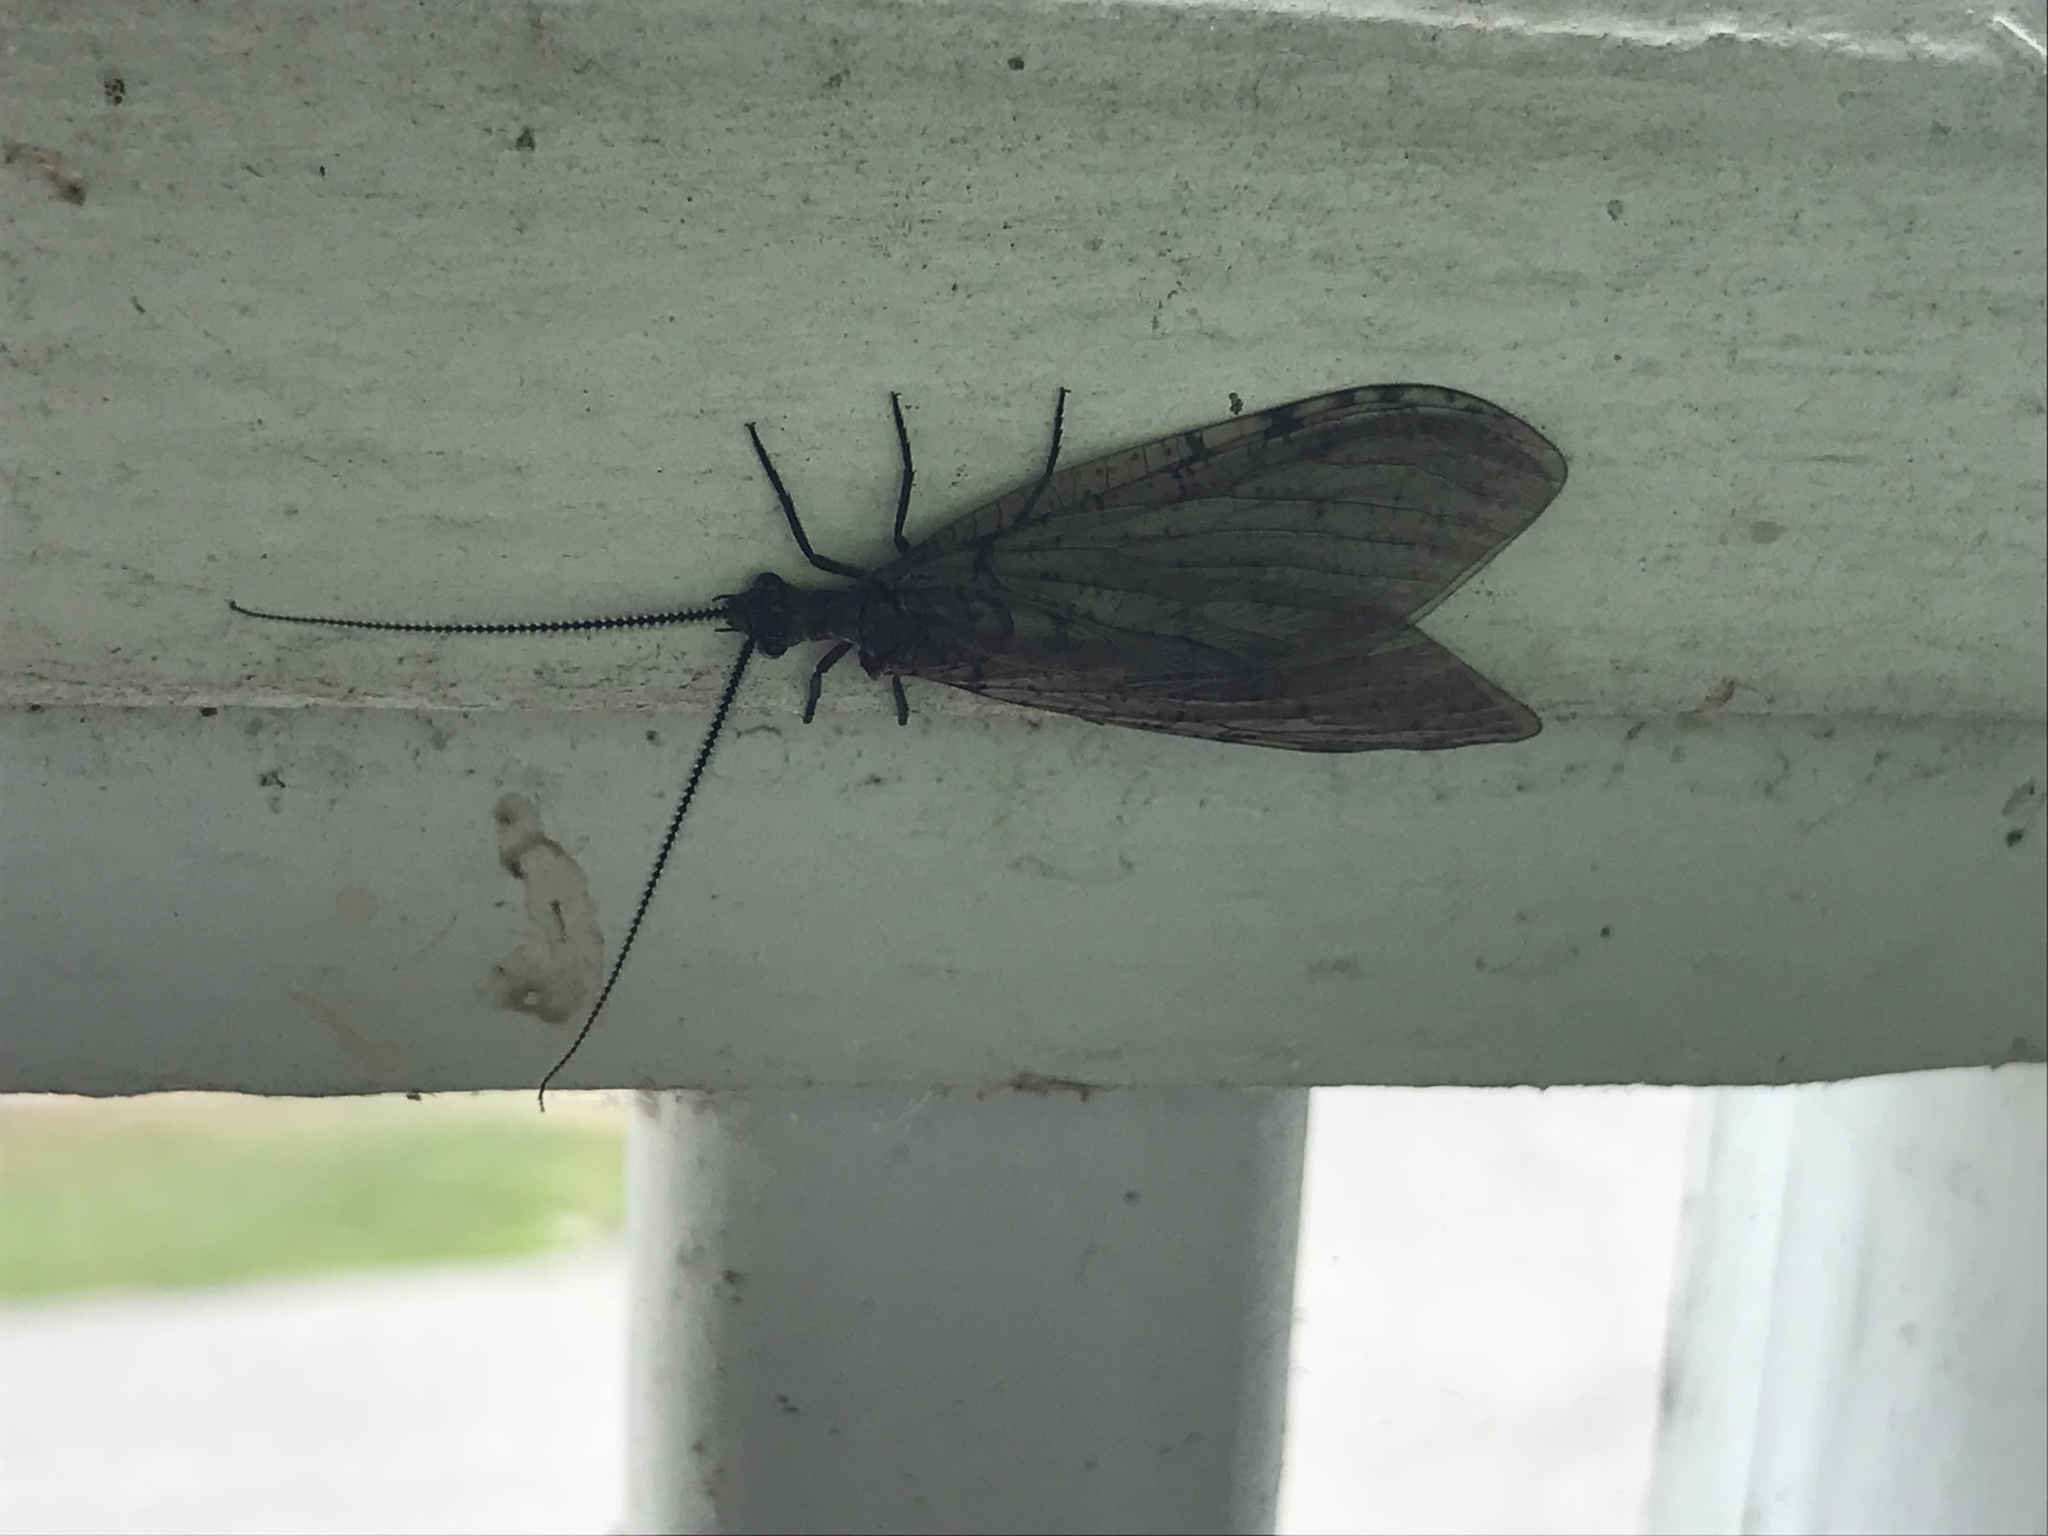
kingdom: Animalia
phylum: Arthropoda
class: Insecta
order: Megaloptera
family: Corydalidae
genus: Neohermes
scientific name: Neohermes concolor
